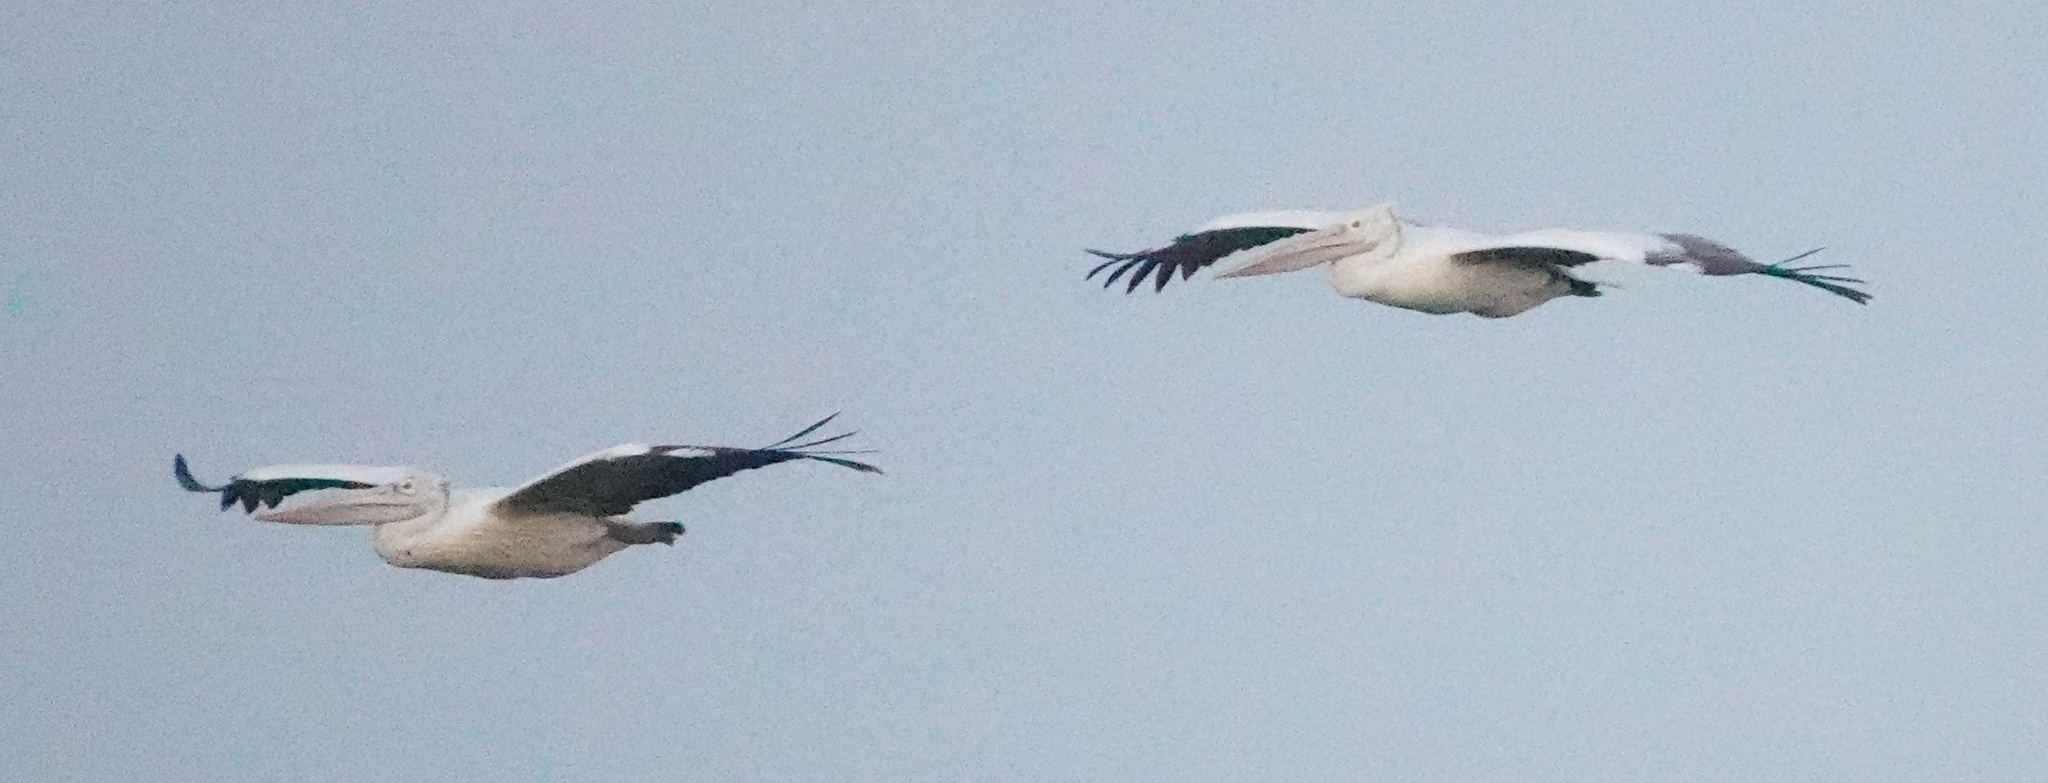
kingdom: Animalia
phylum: Chordata
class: Aves
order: Pelecaniformes
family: Pelecanidae
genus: Pelecanus
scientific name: Pelecanus philippensis
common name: Spot-billed pelican
